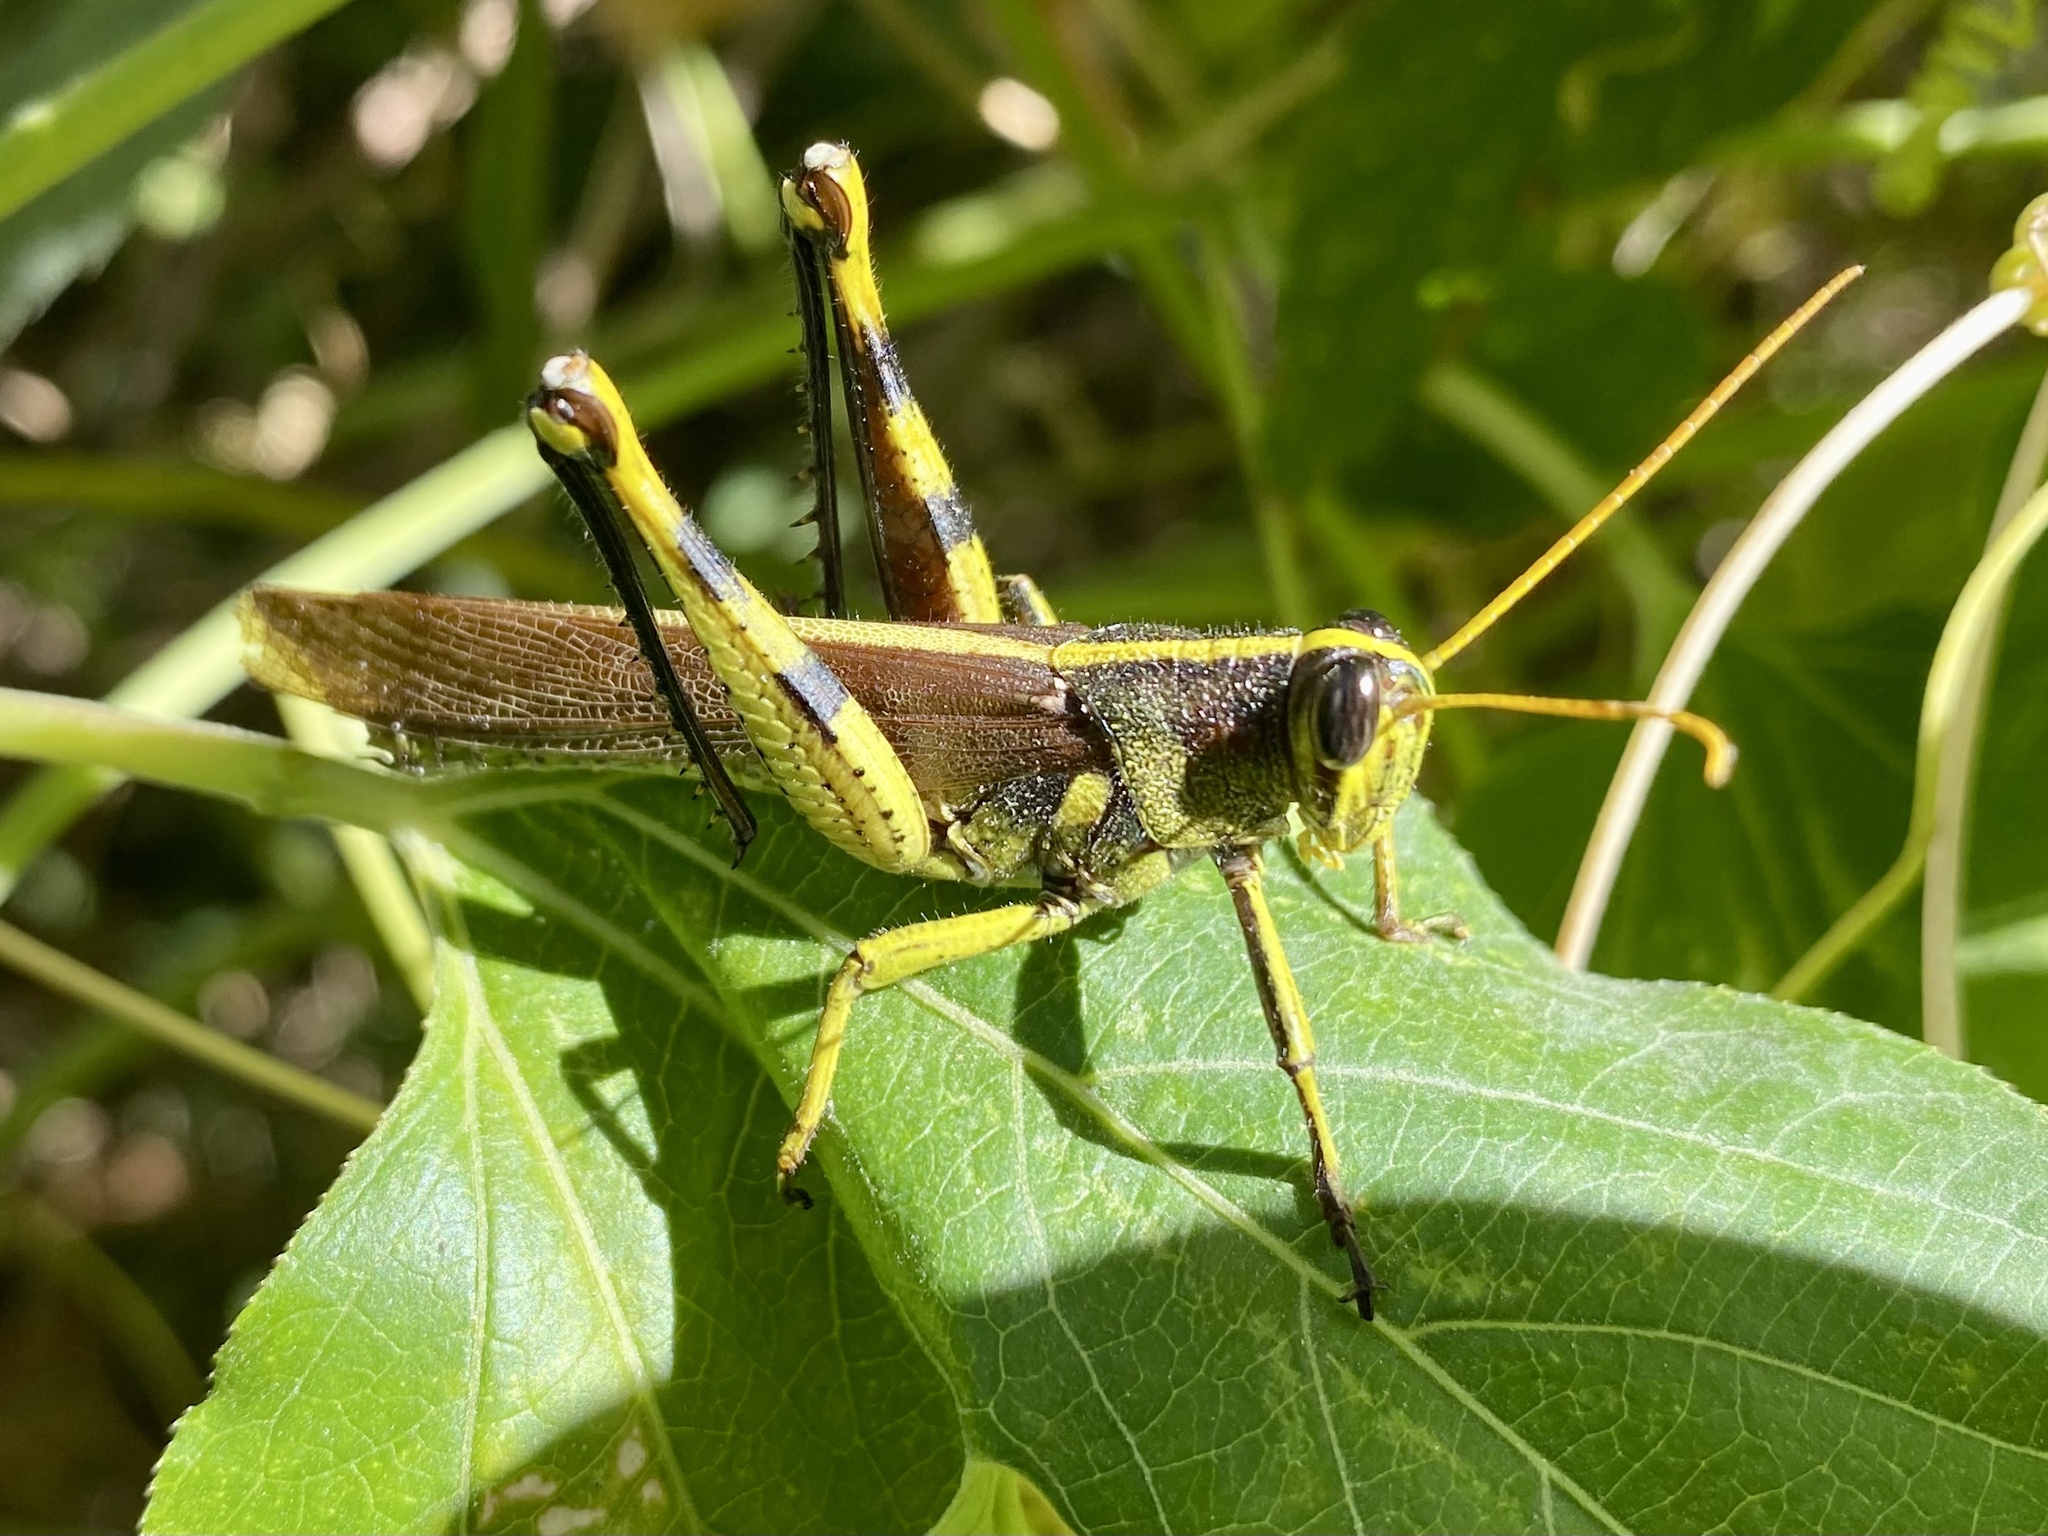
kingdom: Animalia
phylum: Arthropoda
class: Insecta
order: Orthoptera
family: Acrididae
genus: Schistocerca
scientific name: Schistocerca obscura
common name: Obscure bird grasshopper
